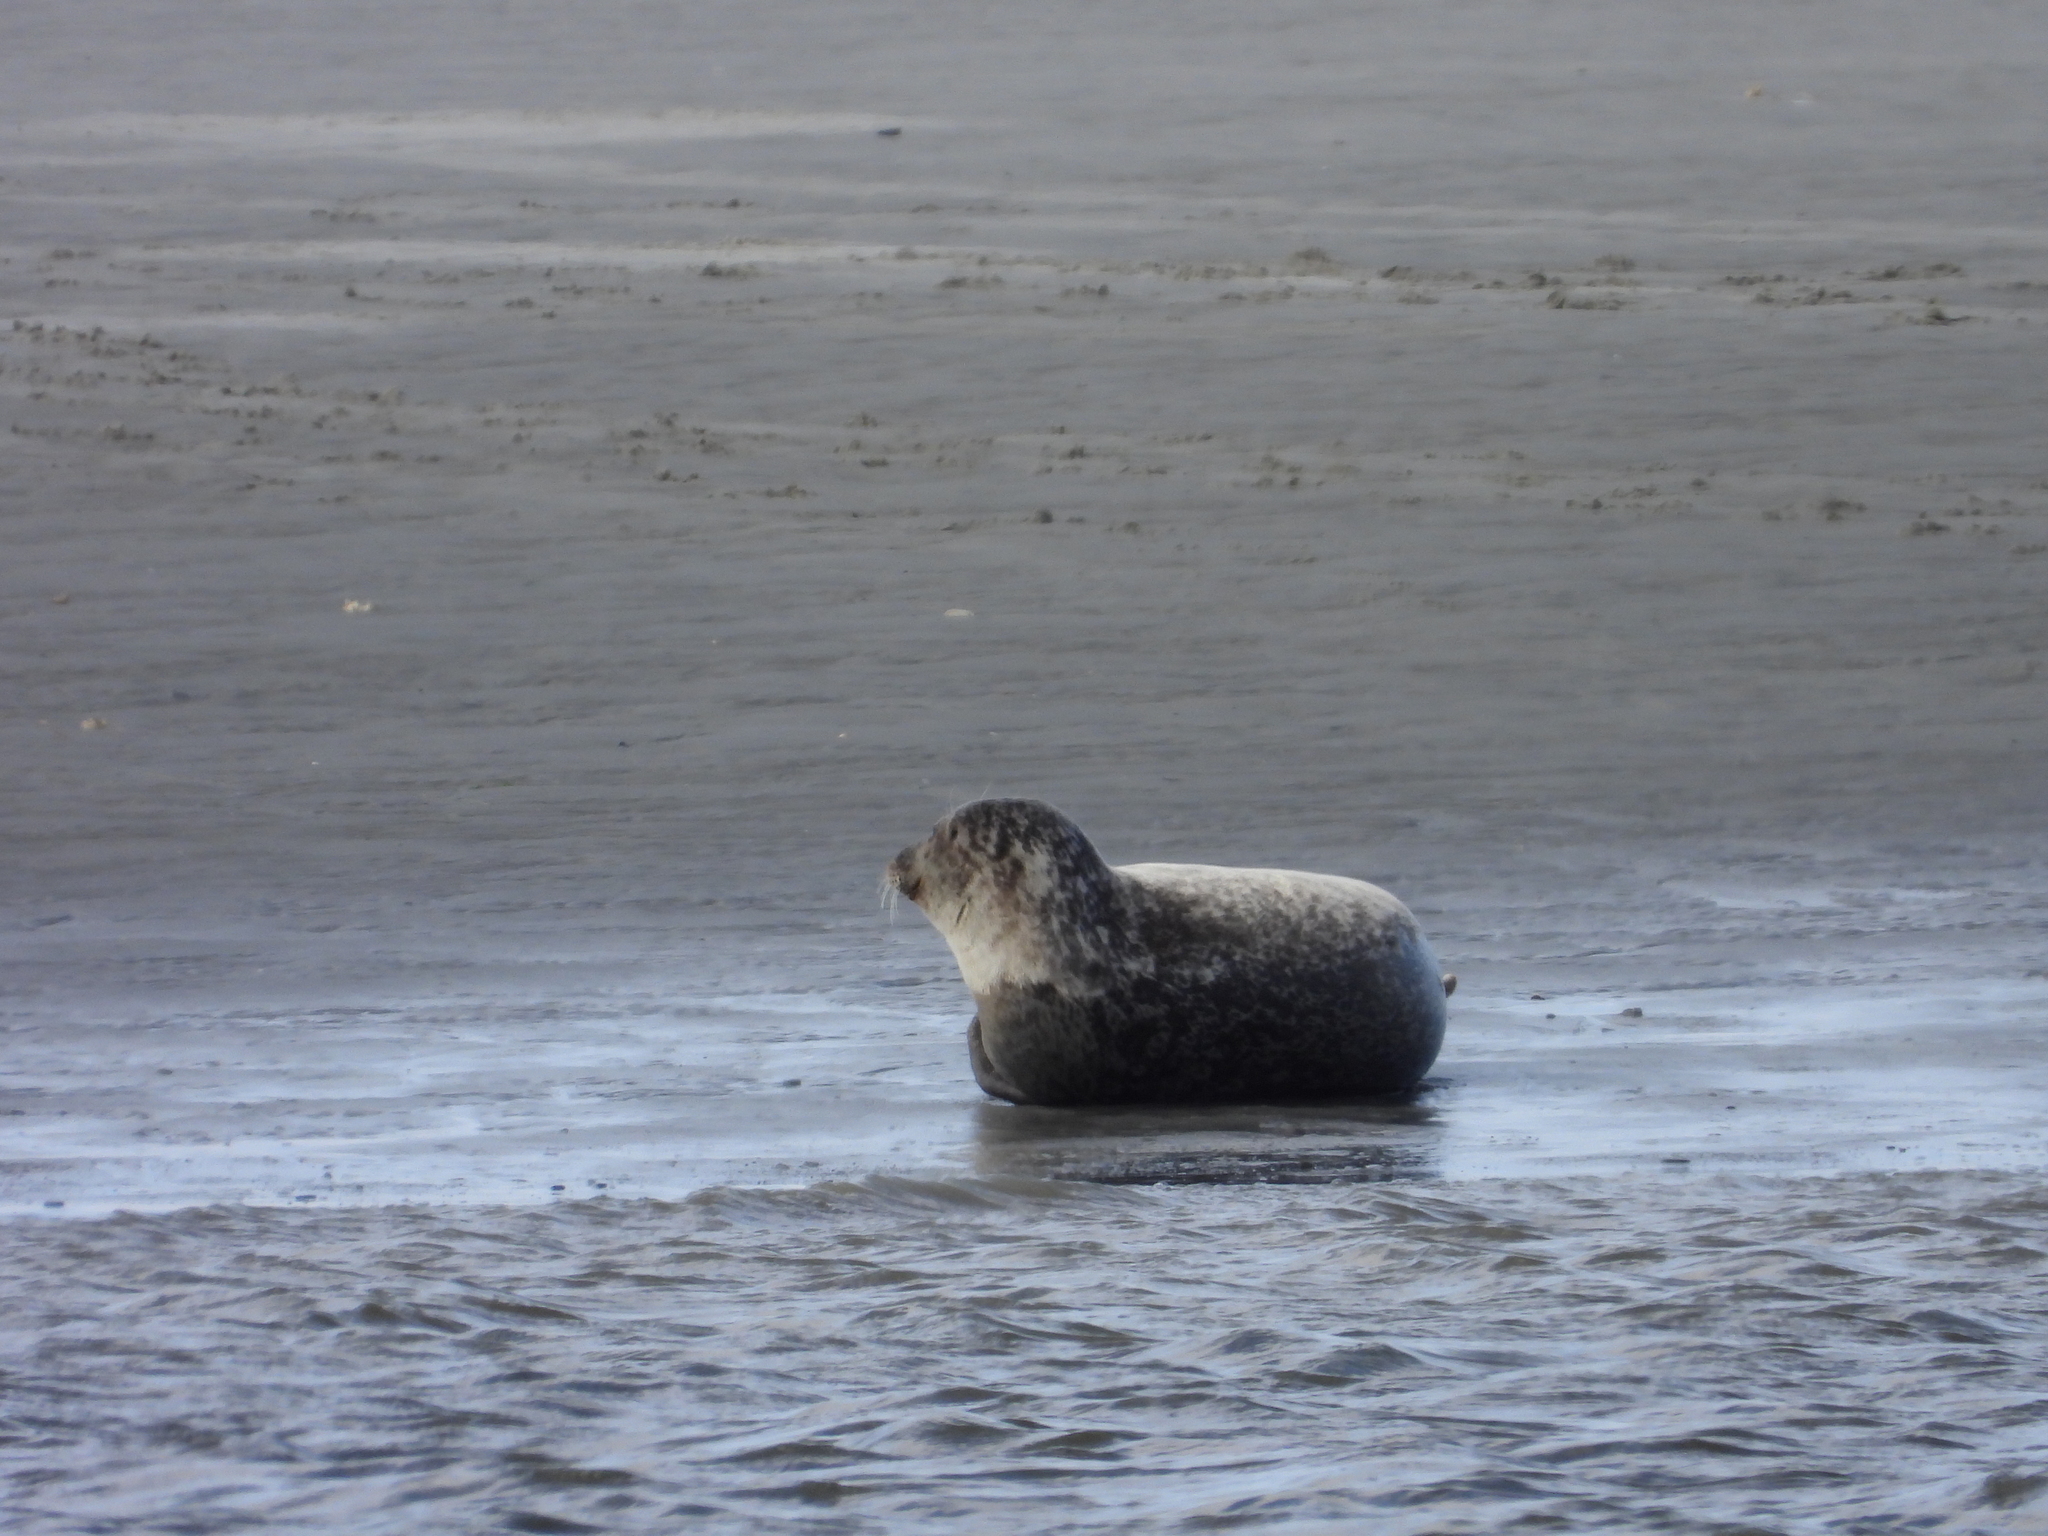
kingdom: Animalia
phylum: Chordata
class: Mammalia
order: Carnivora
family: Phocidae
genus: Phoca
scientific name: Phoca vitulina
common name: Harbor seal
